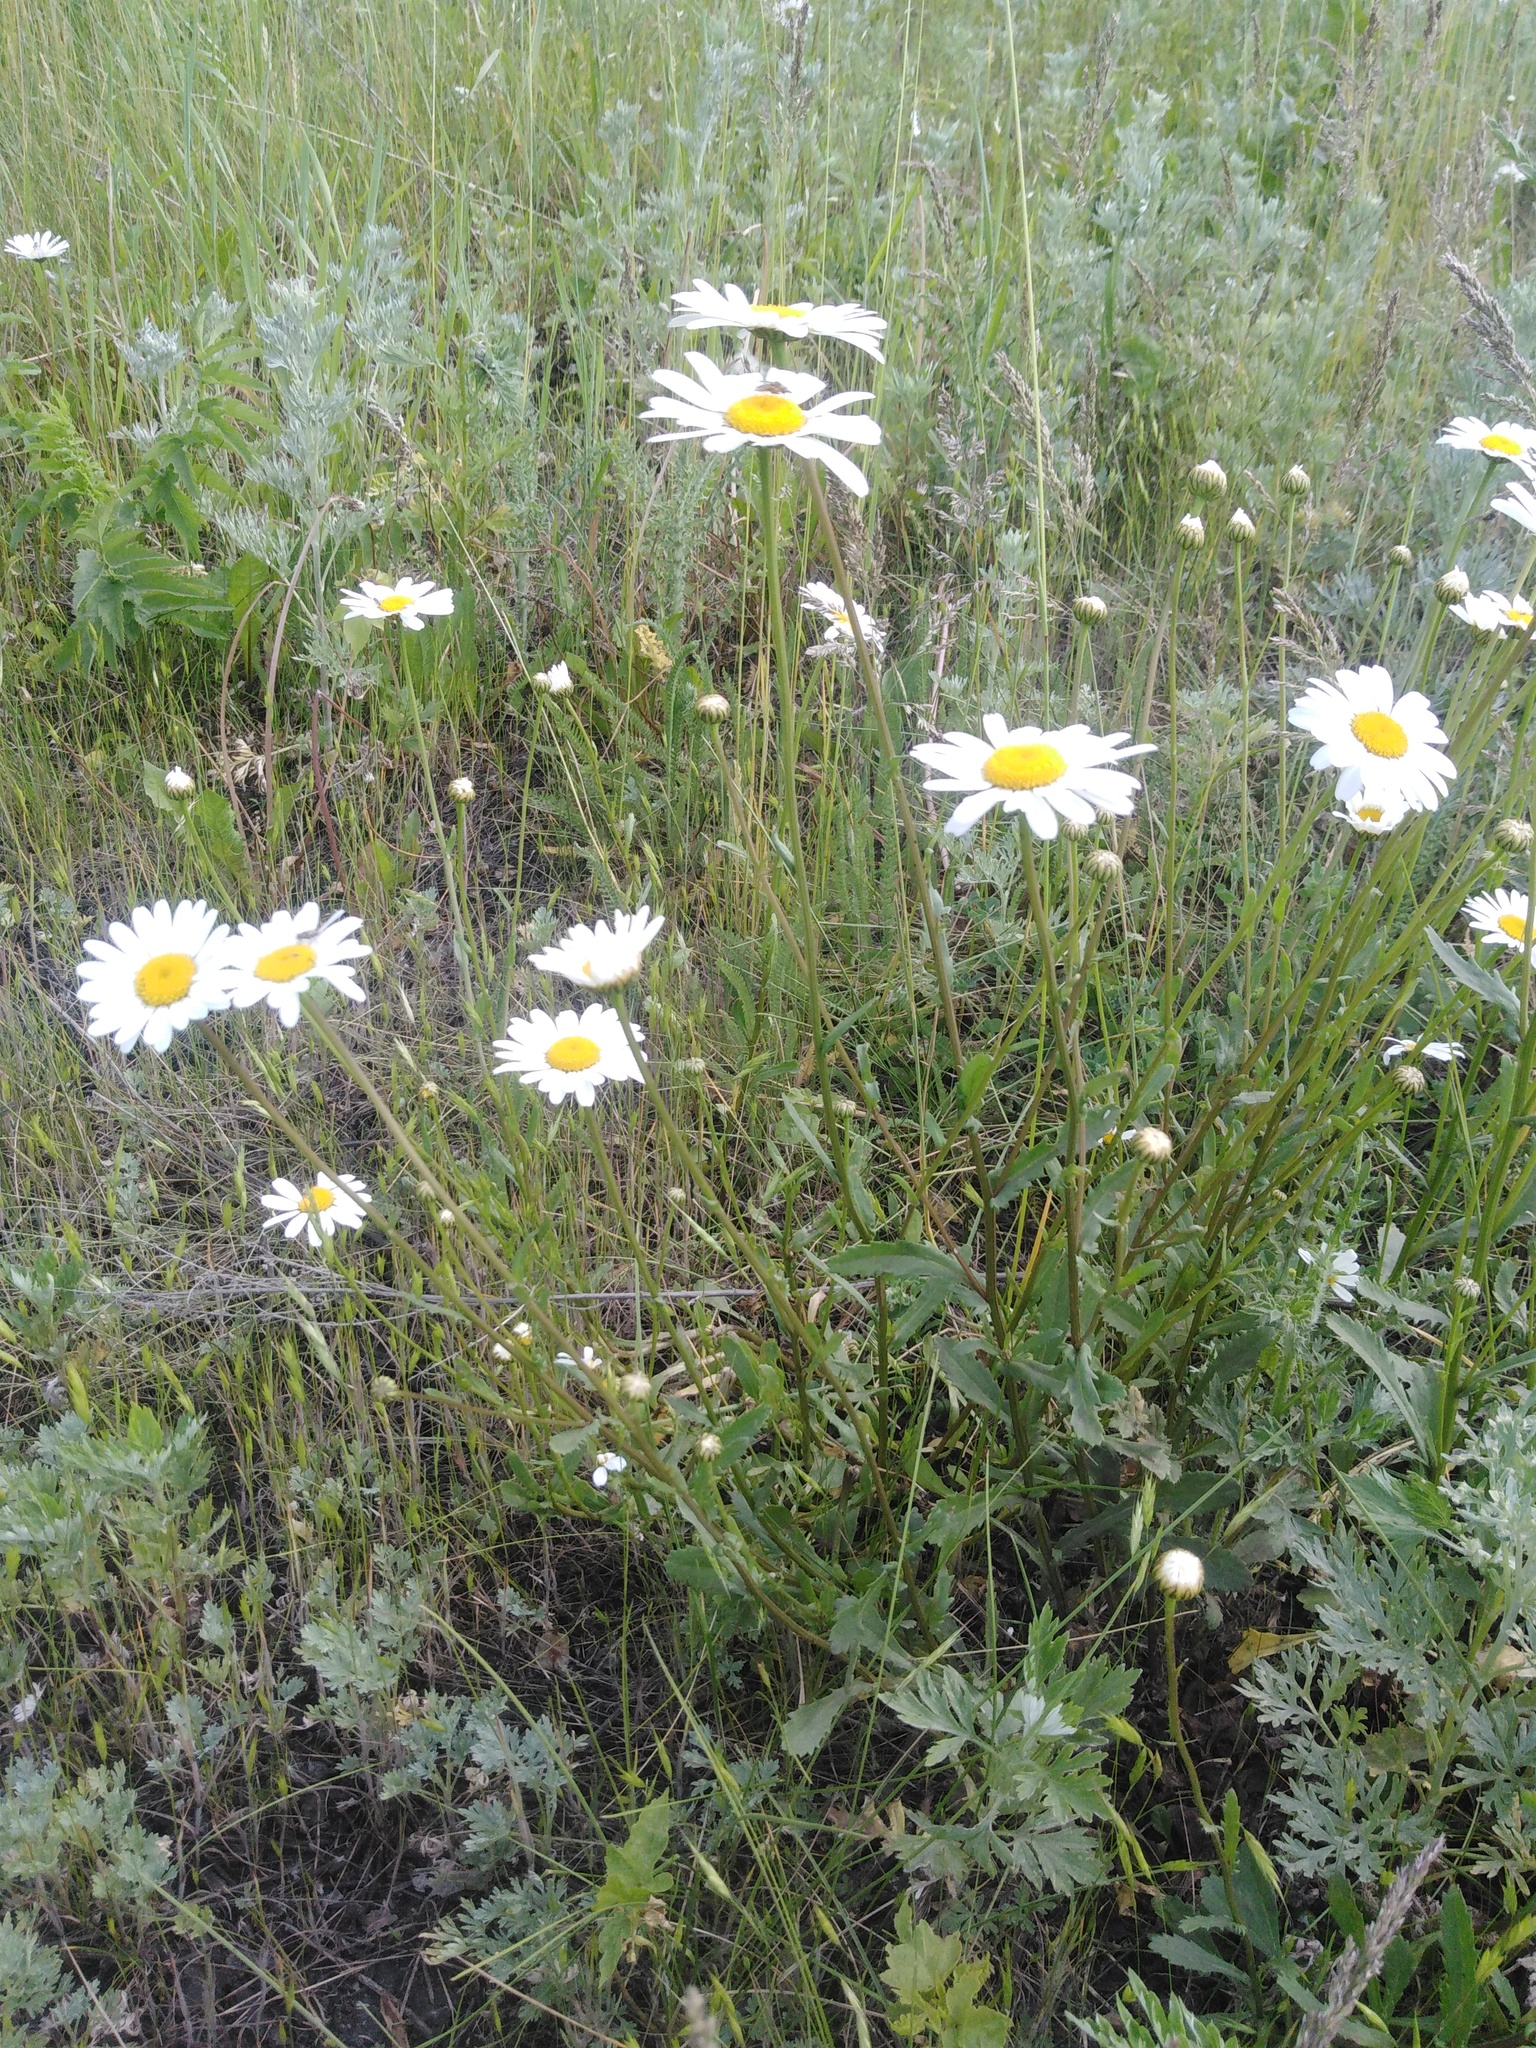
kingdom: Plantae
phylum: Tracheophyta
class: Magnoliopsida
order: Asterales
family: Asteraceae
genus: Leucanthemum
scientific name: Leucanthemum ircutianum
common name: Daisy
